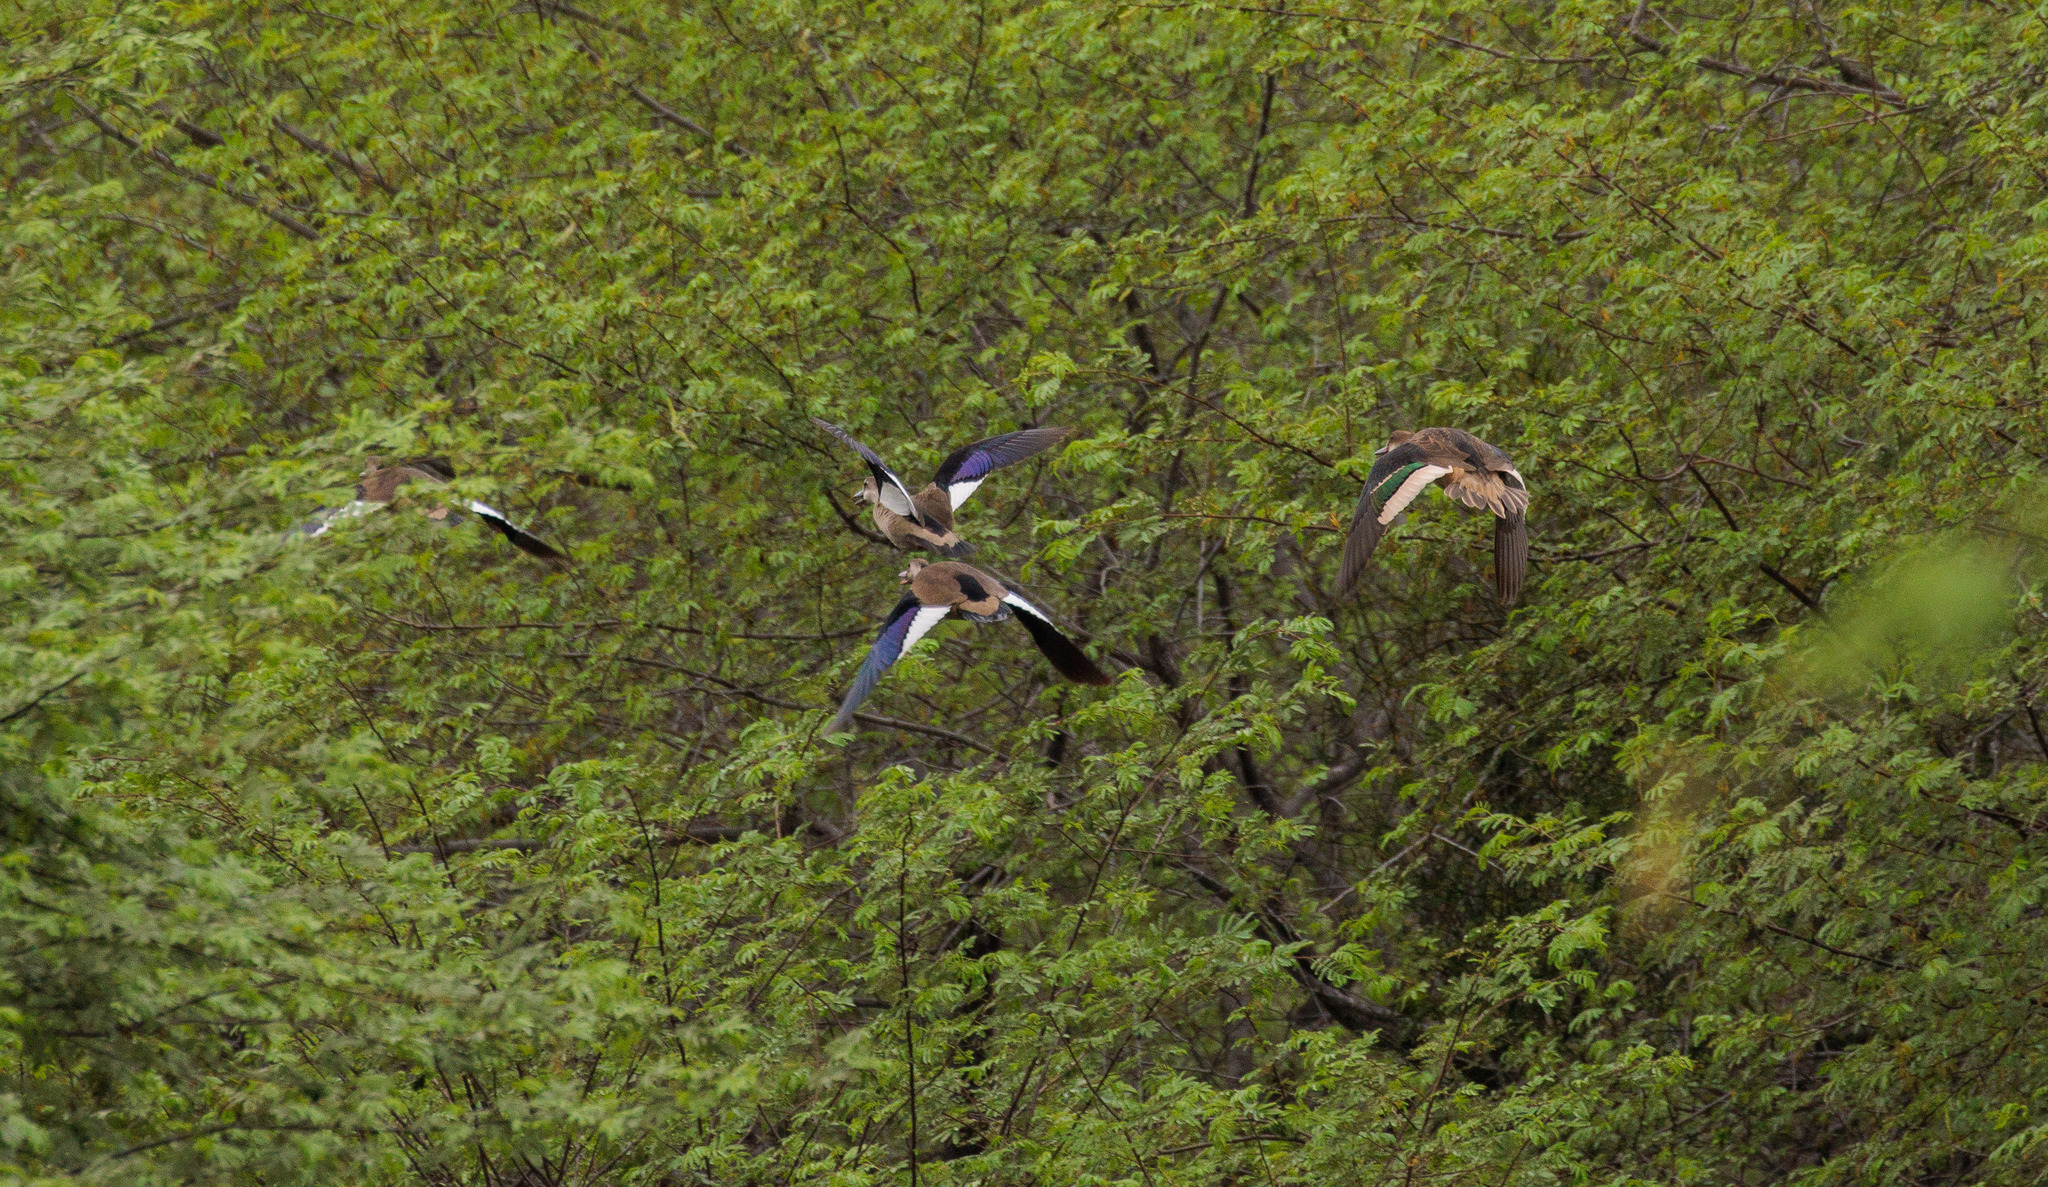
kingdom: Animalia
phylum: Chordata
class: Aves
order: Anseriformes
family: Anatidae
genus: Anas
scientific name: Anas bahamensis
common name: White-cheeked pintail
